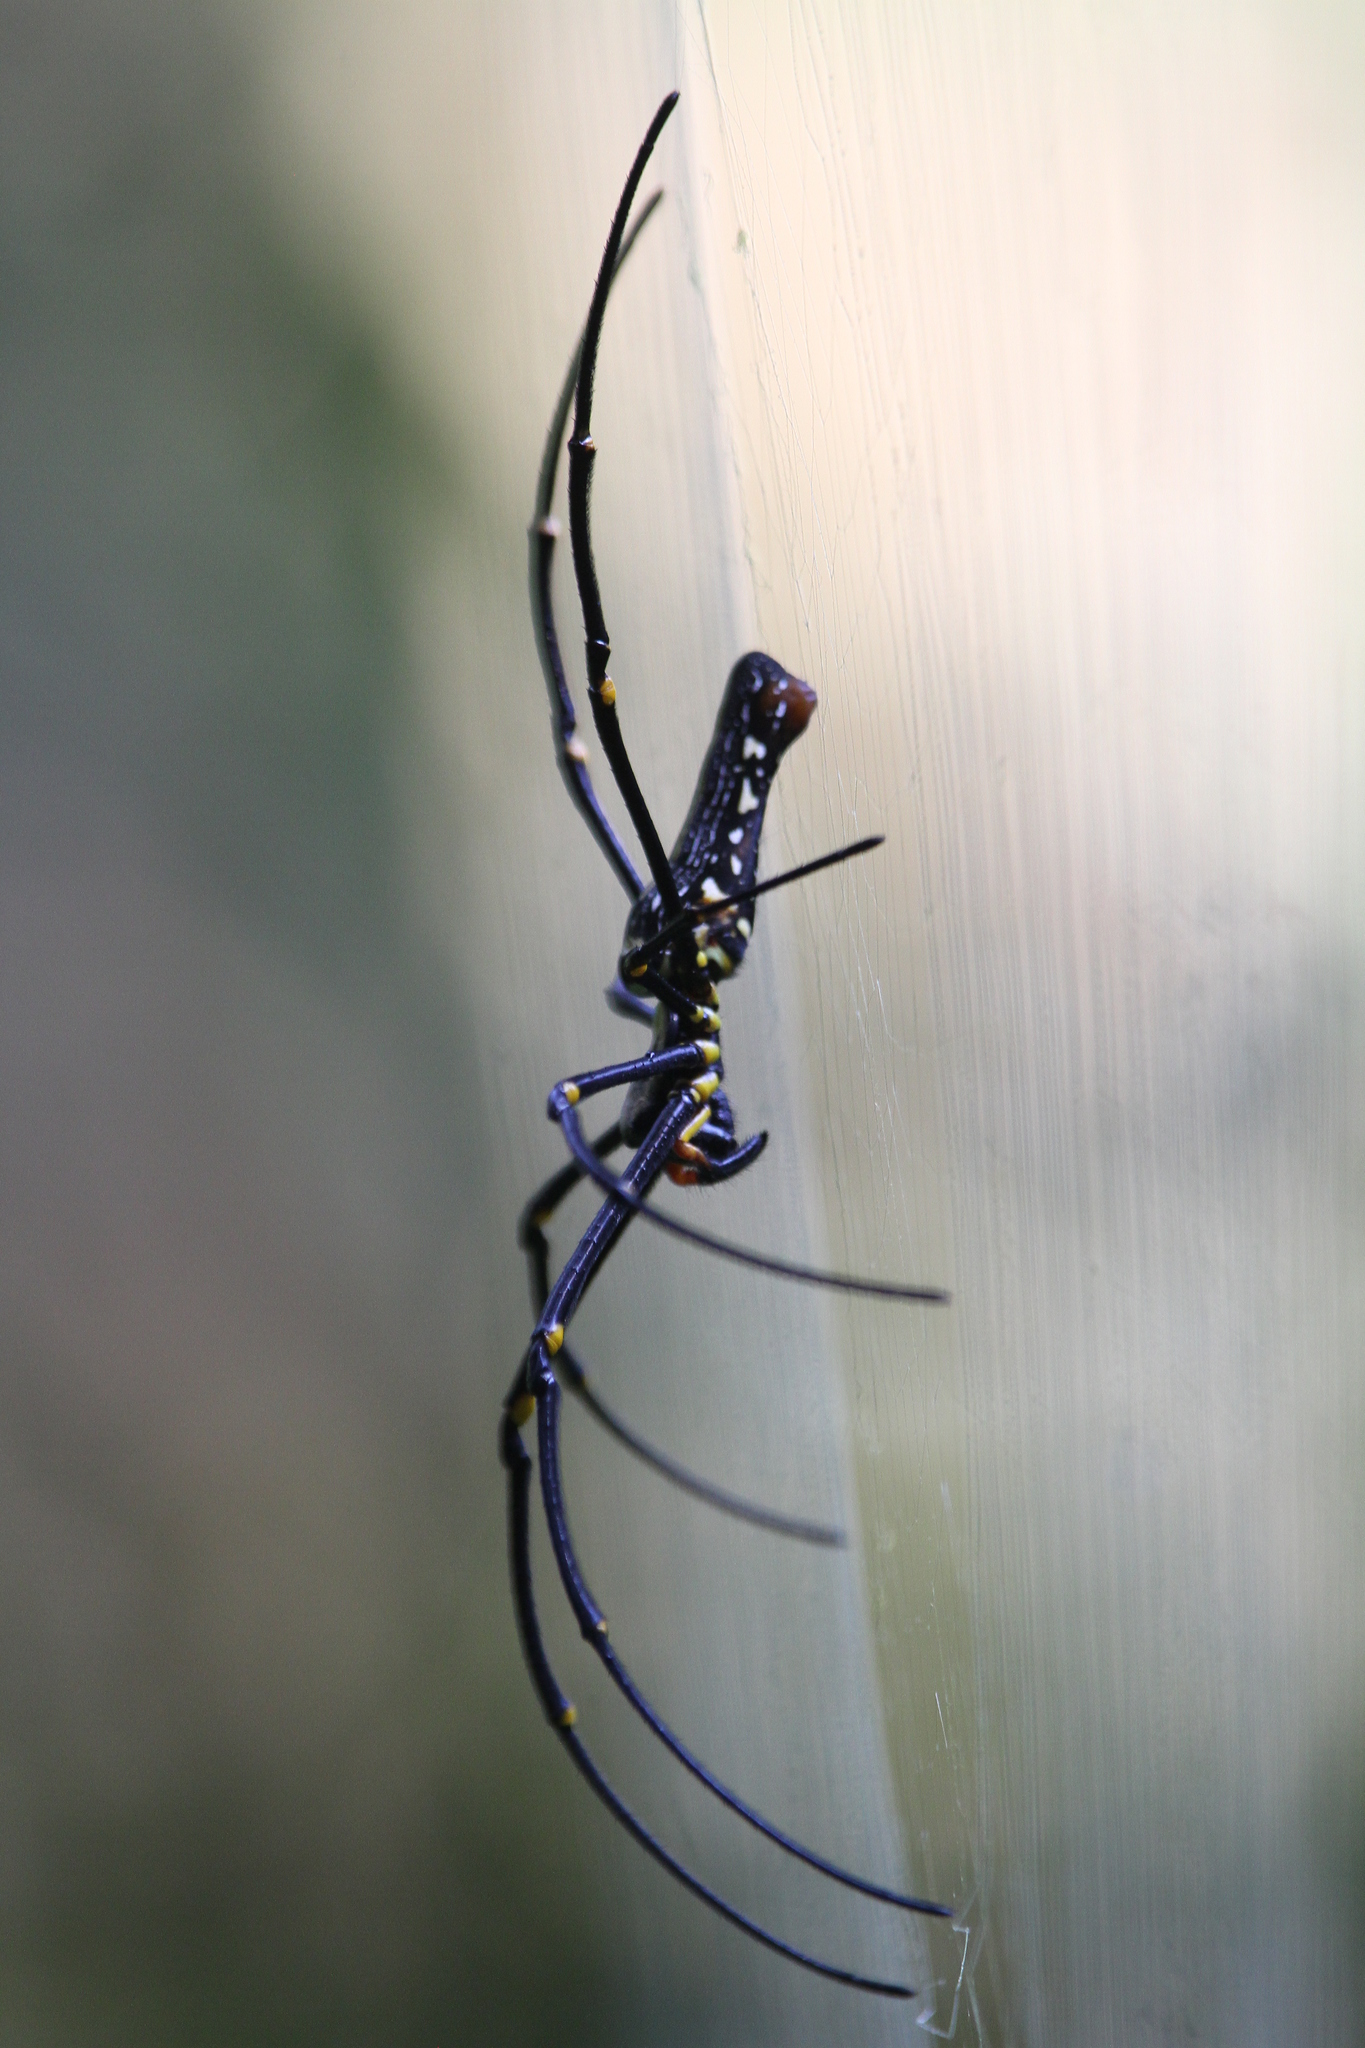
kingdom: Animalia
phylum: Arthropoda
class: Arachnida
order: Araneae
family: Araneidae
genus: Nephila
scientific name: Nephila pilipes
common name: Giant golden orb weaver
